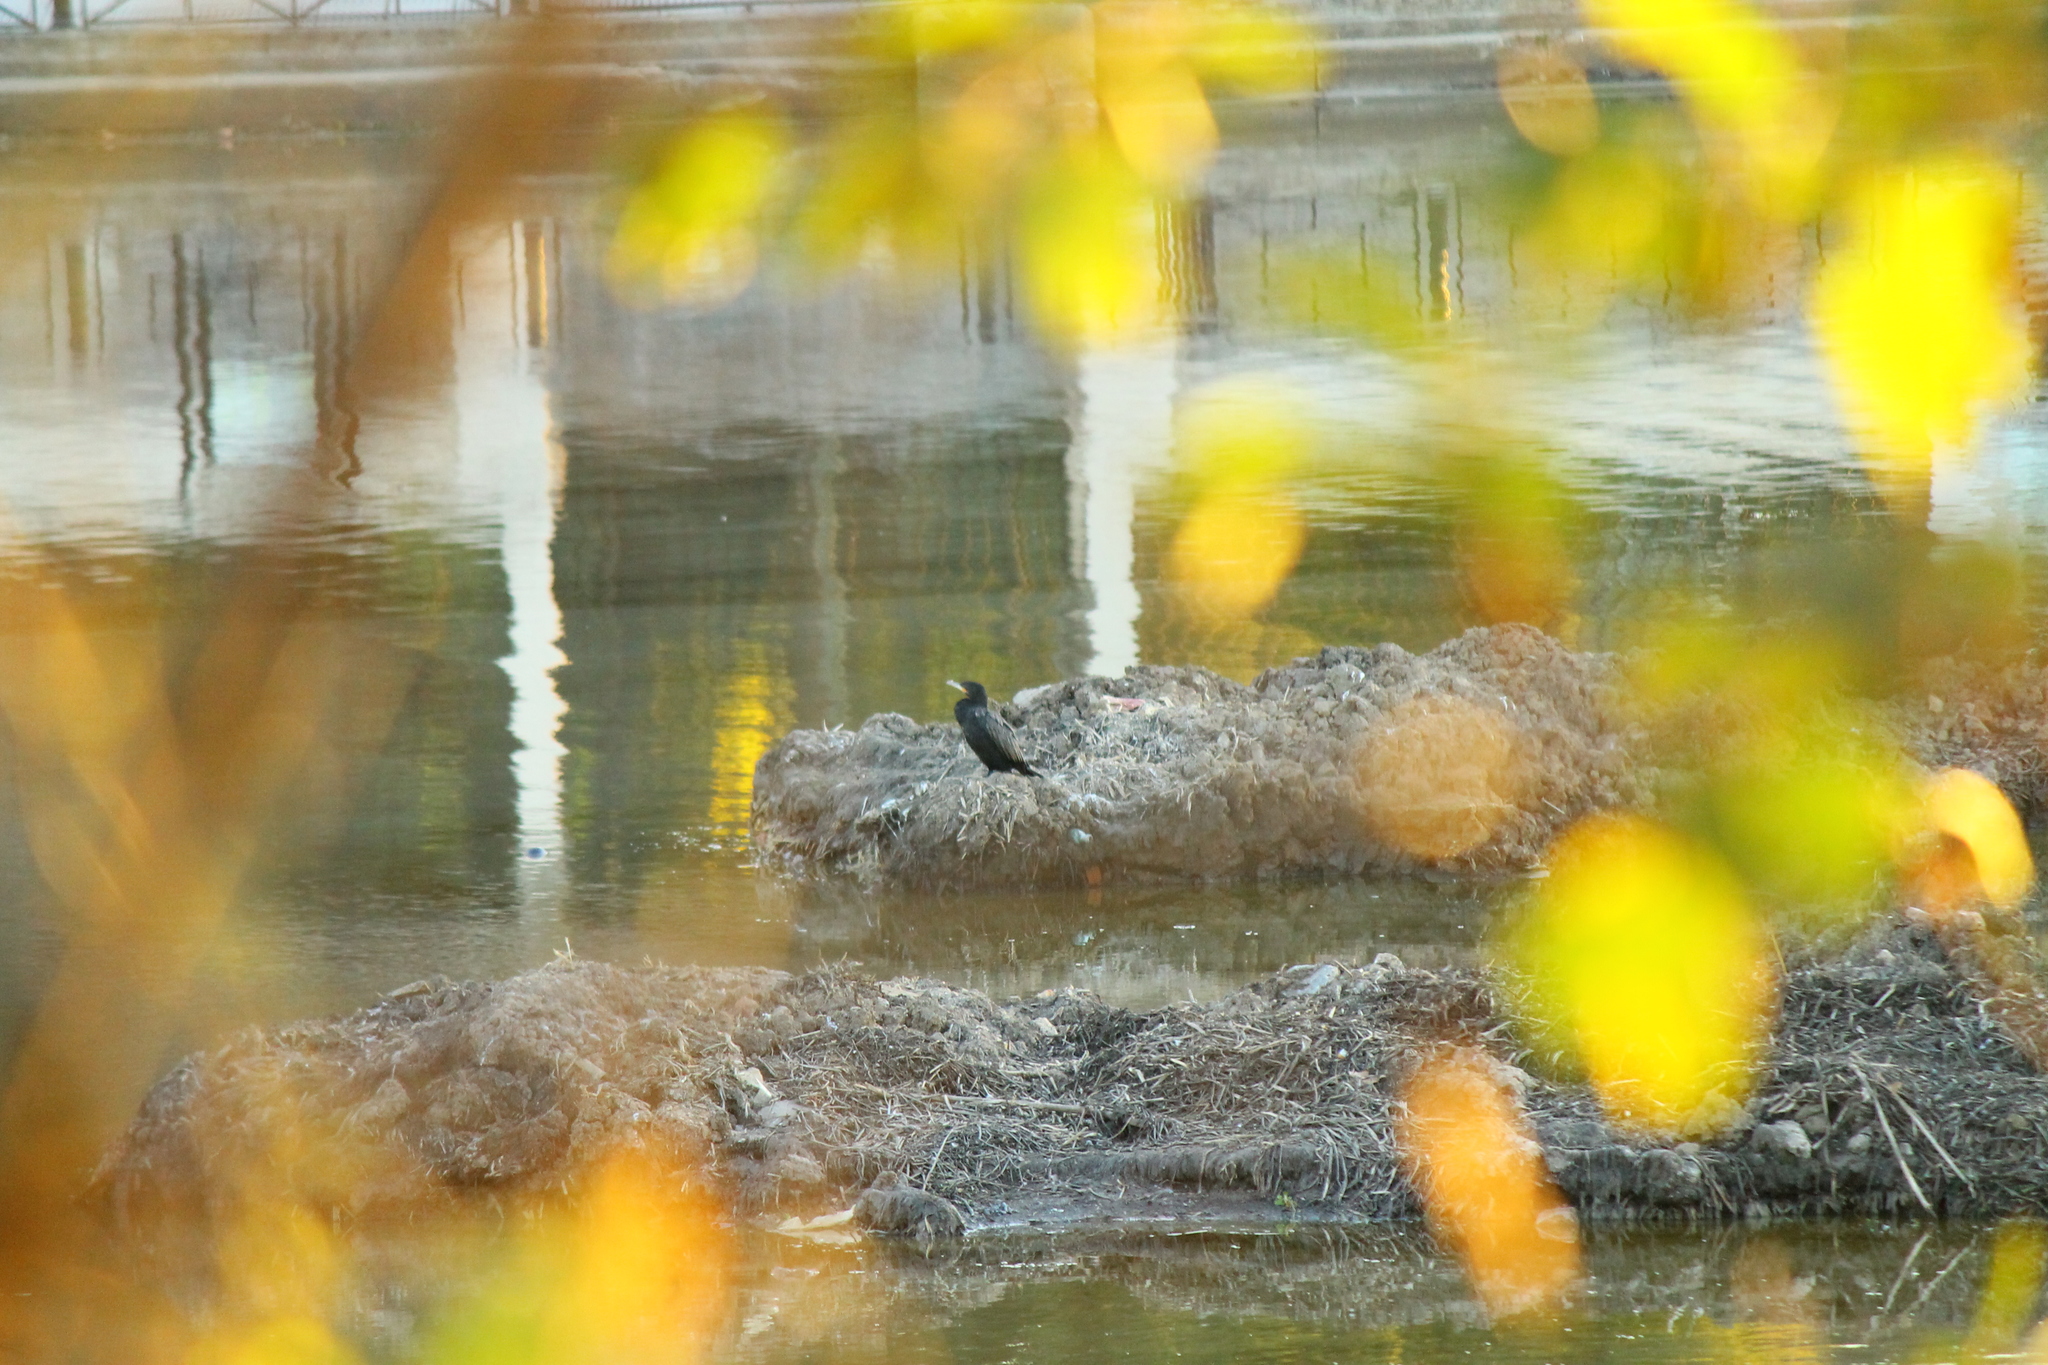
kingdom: Animalia
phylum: Chordata
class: Aves
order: Suliformes
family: Phalacrocoracidae
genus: Phalacrocorax
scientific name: Phalacrocorax brasilianus
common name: Neotropic cormorant
